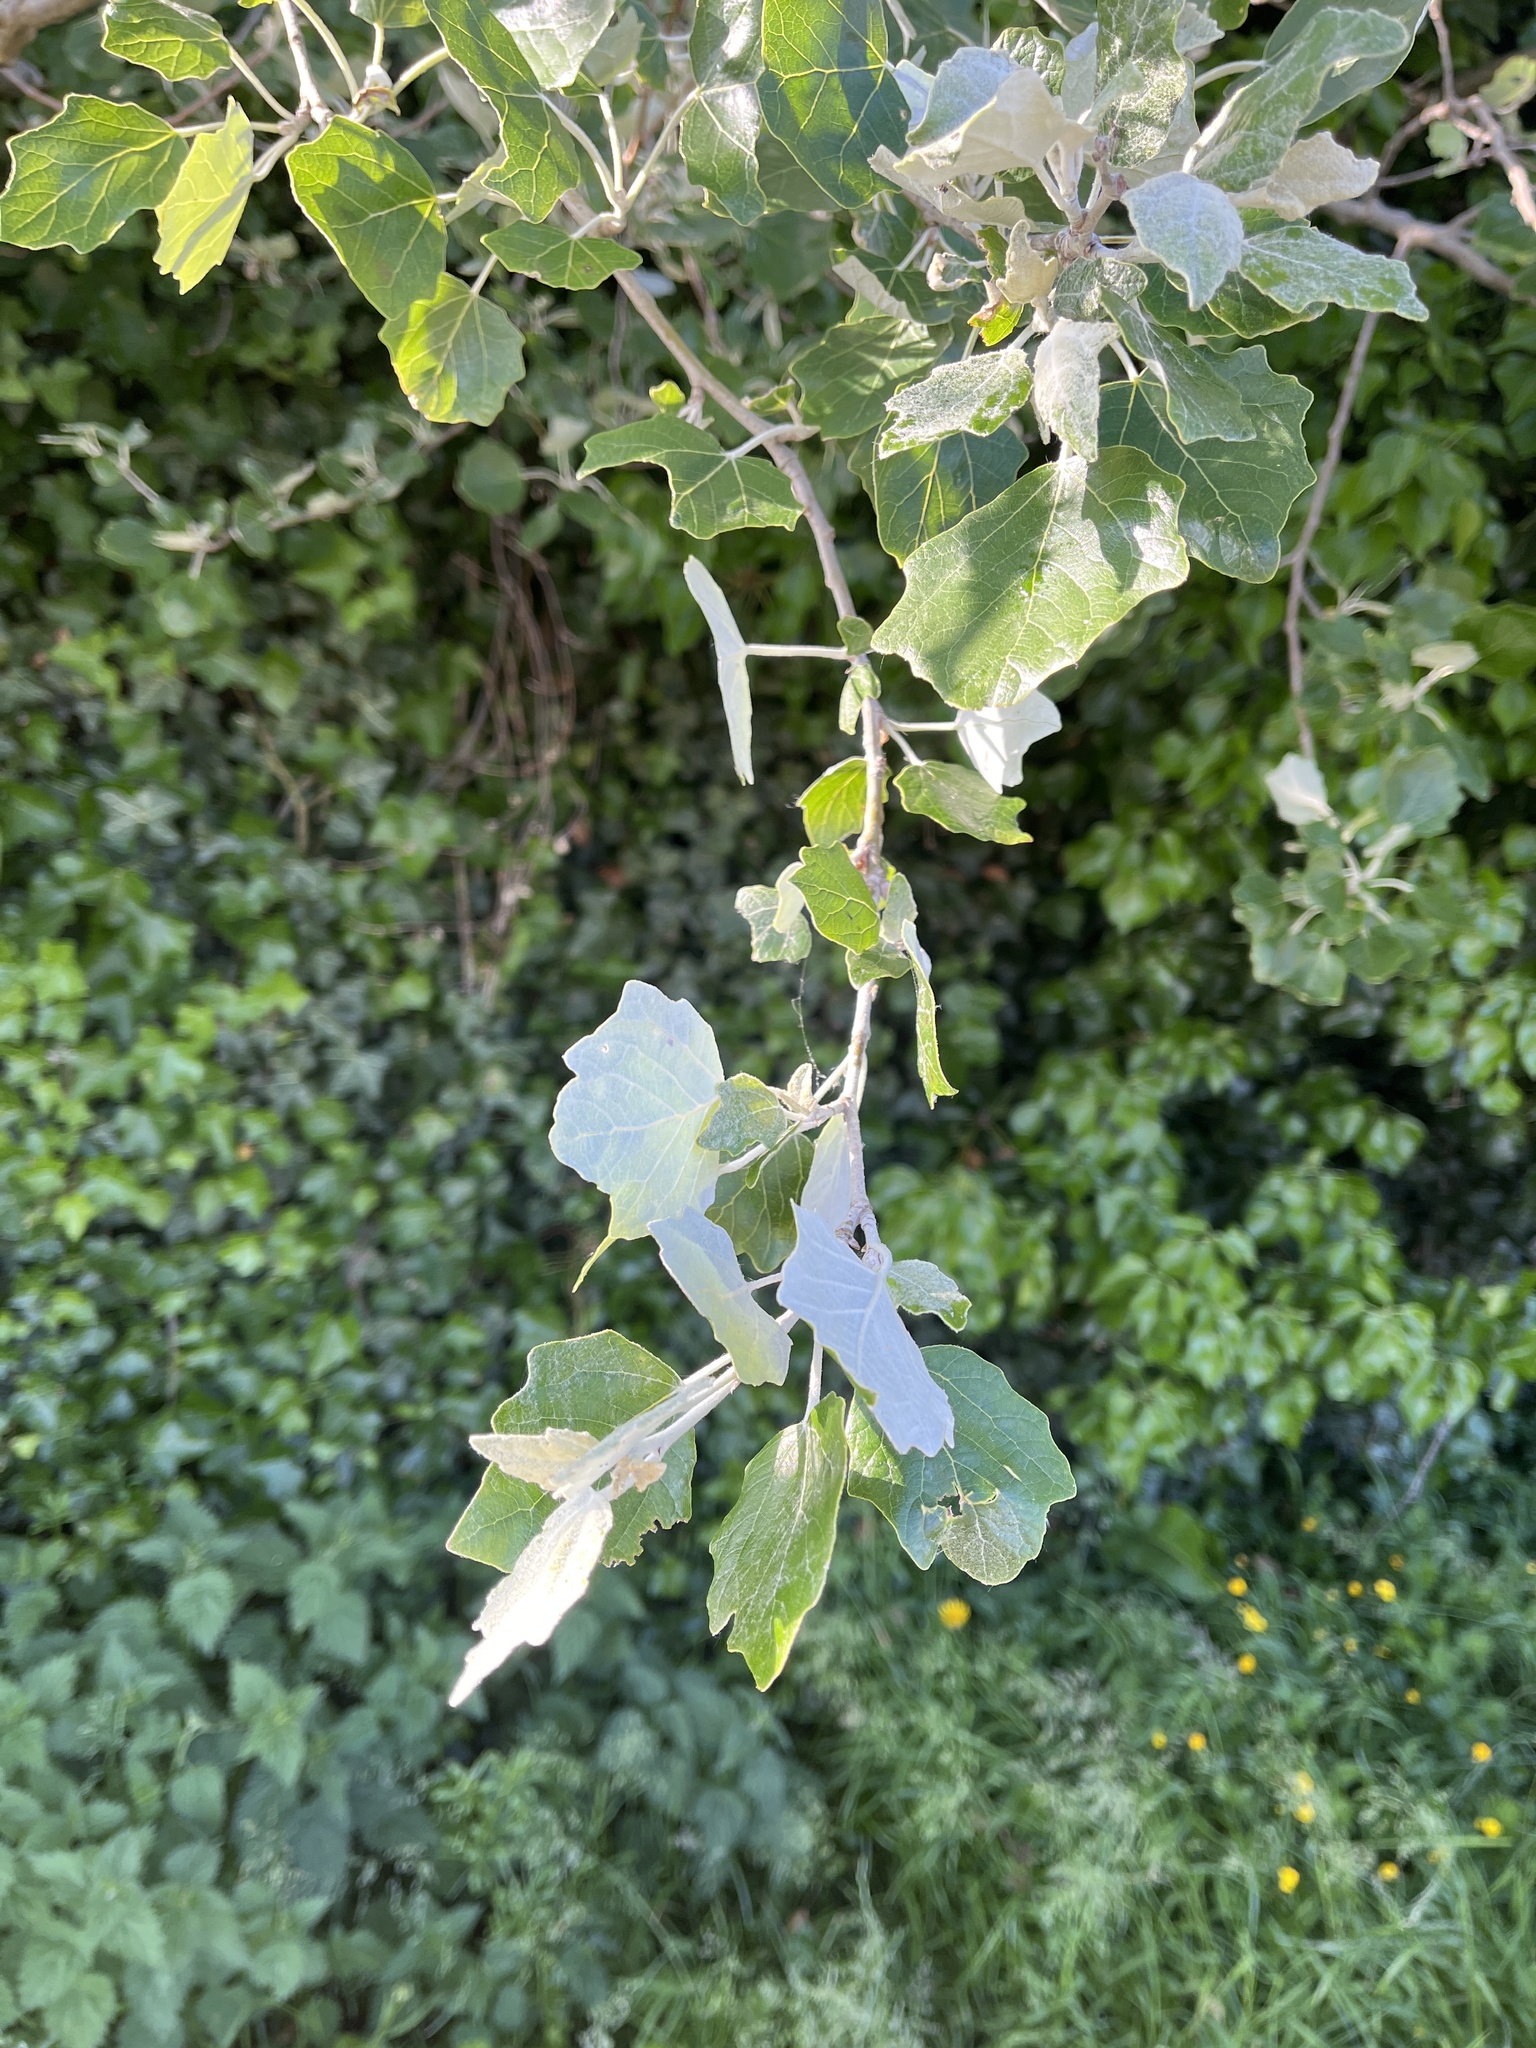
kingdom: Plantae
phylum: Tracheophyta
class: Magnoliopsida
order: Malpighiales
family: Salicaceae
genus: Populus
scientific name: Populus alba
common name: White poplar
